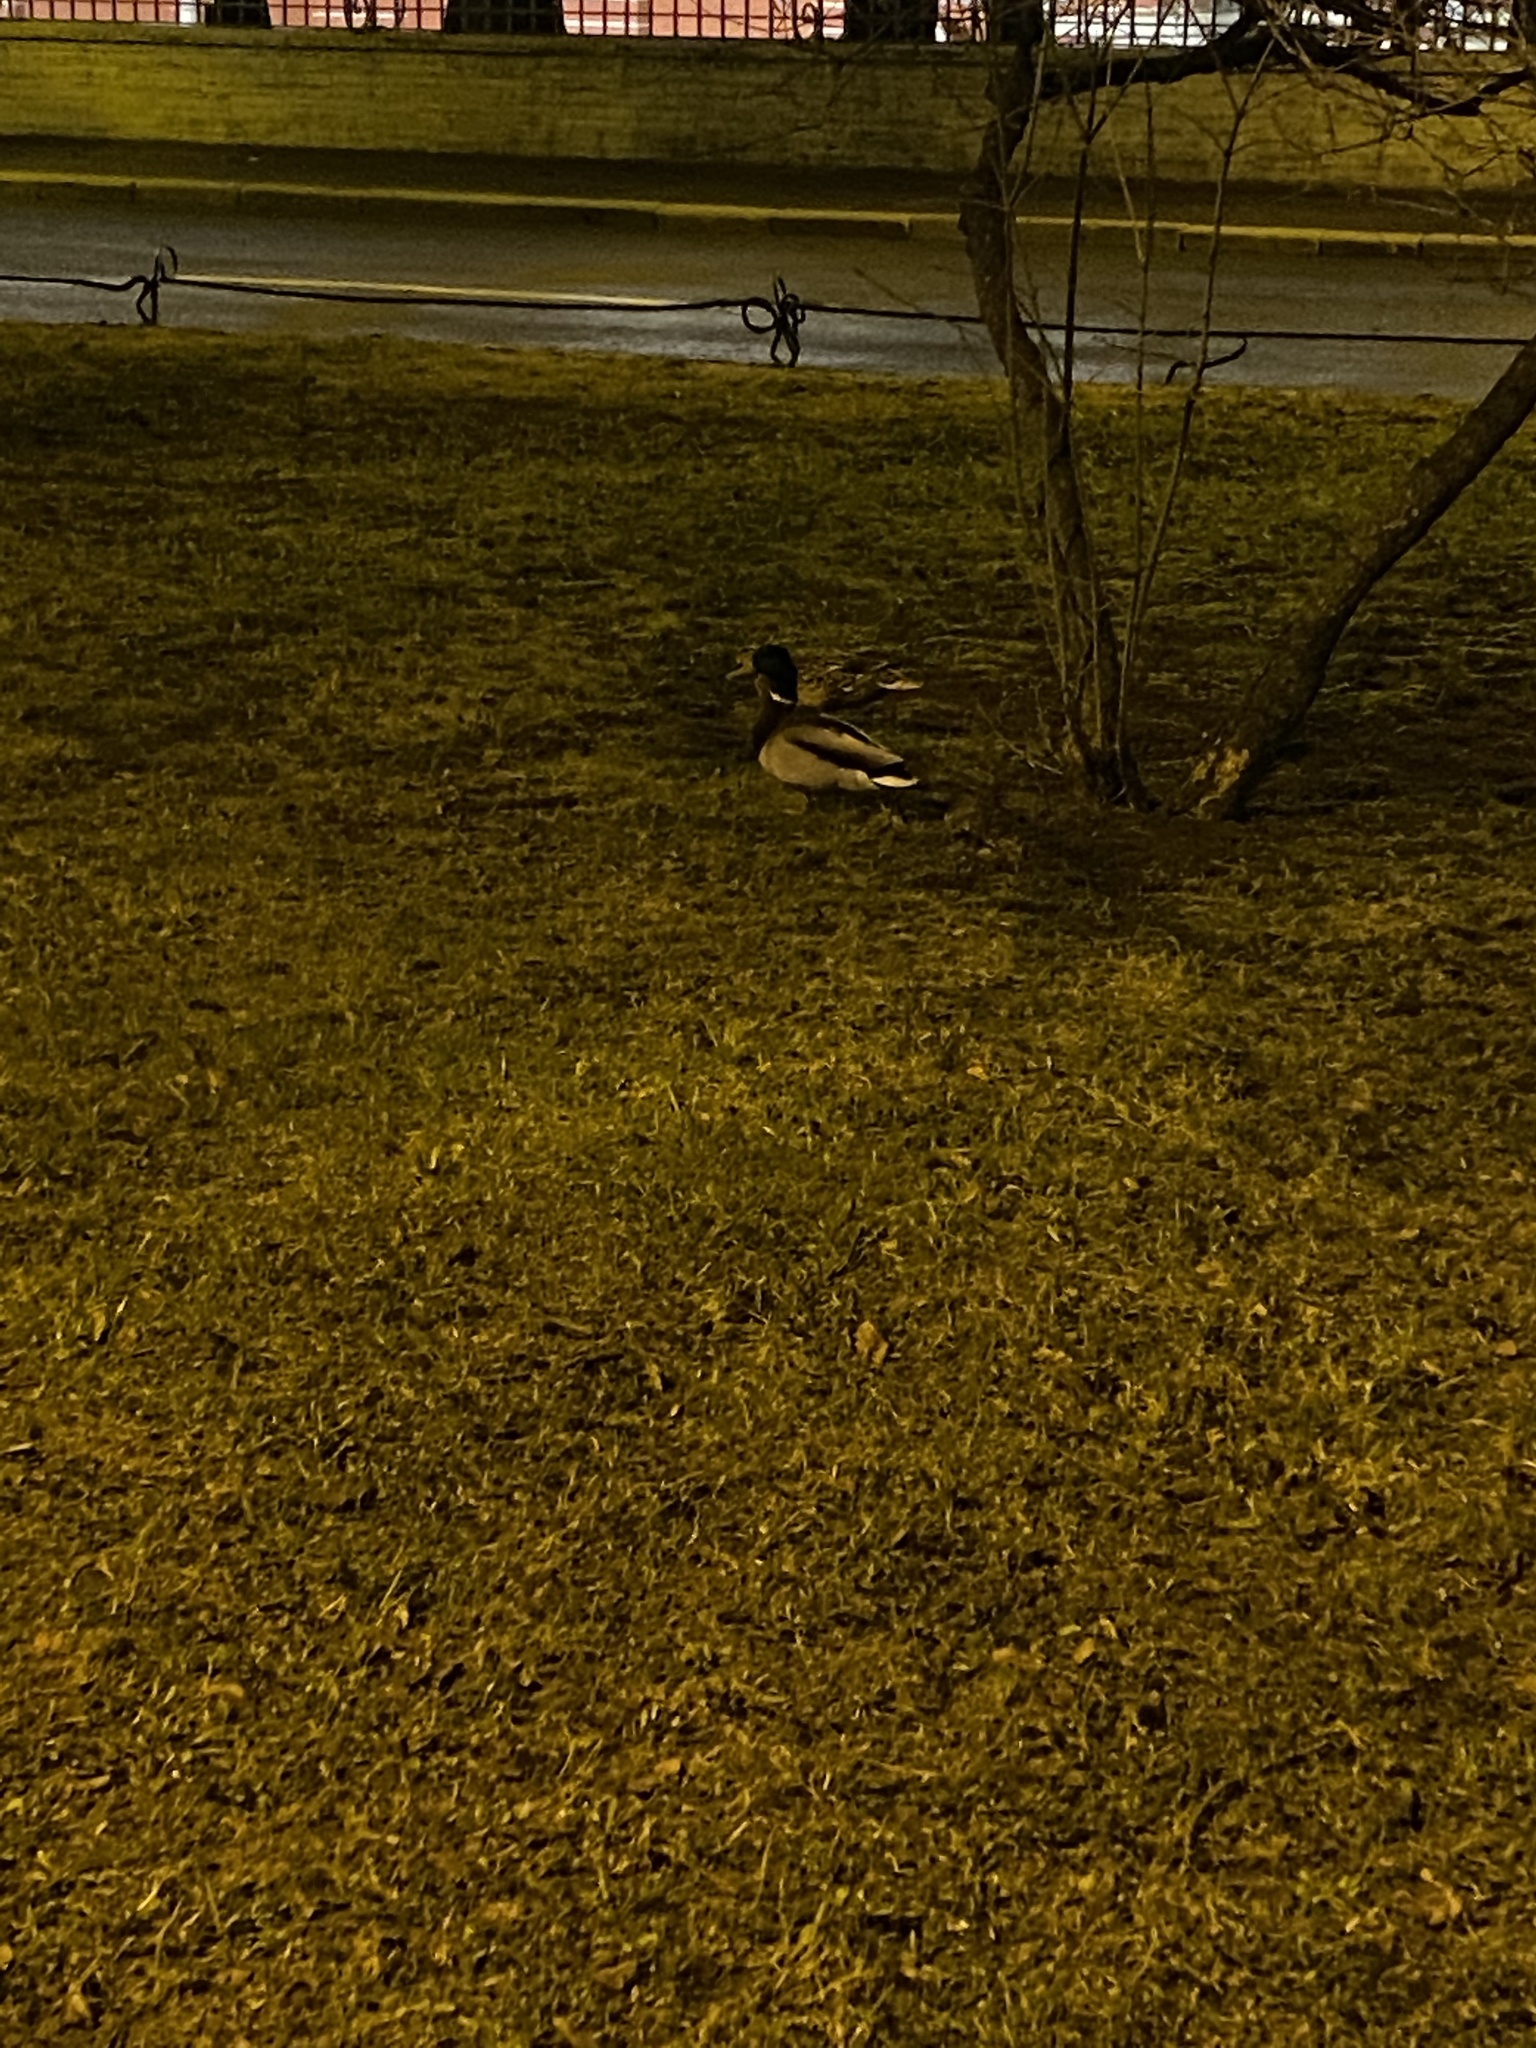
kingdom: Animalia
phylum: Chordata
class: Aves
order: Anseriformes
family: Anatidae
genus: Anas
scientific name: Anas platyrhynchos
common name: Mallard
